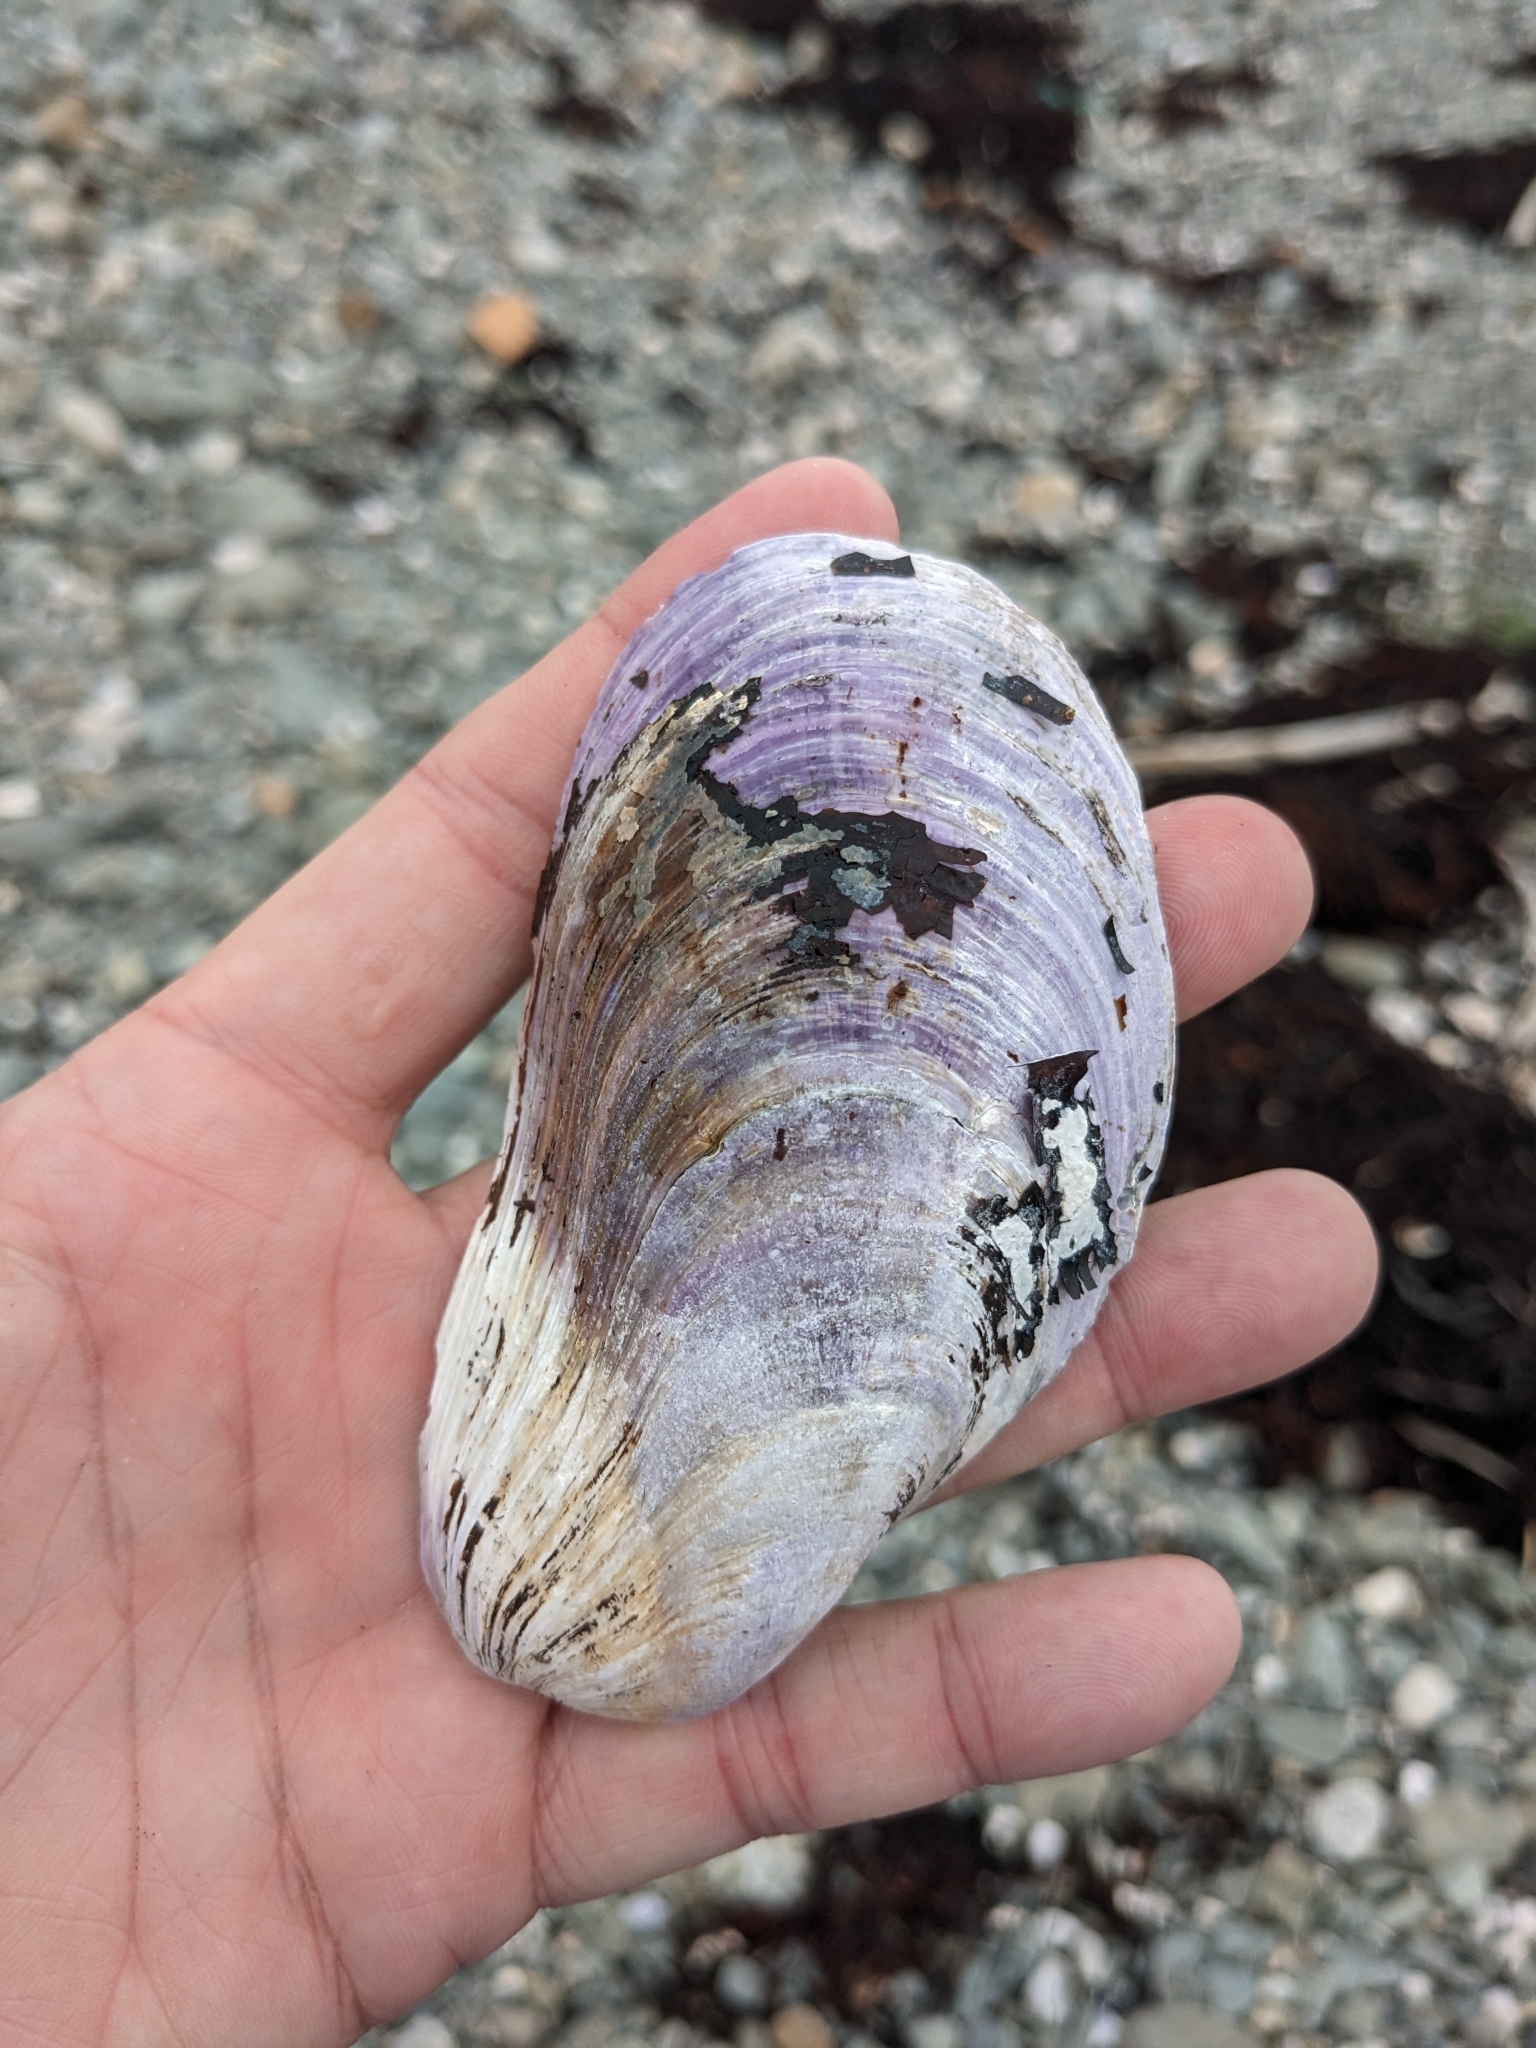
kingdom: Animalia
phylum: Mollusca
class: Bivalvia
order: Mytilida
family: Mytilidae
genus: Modiolus
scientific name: Modiolus modiolus
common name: Horse-mussel
